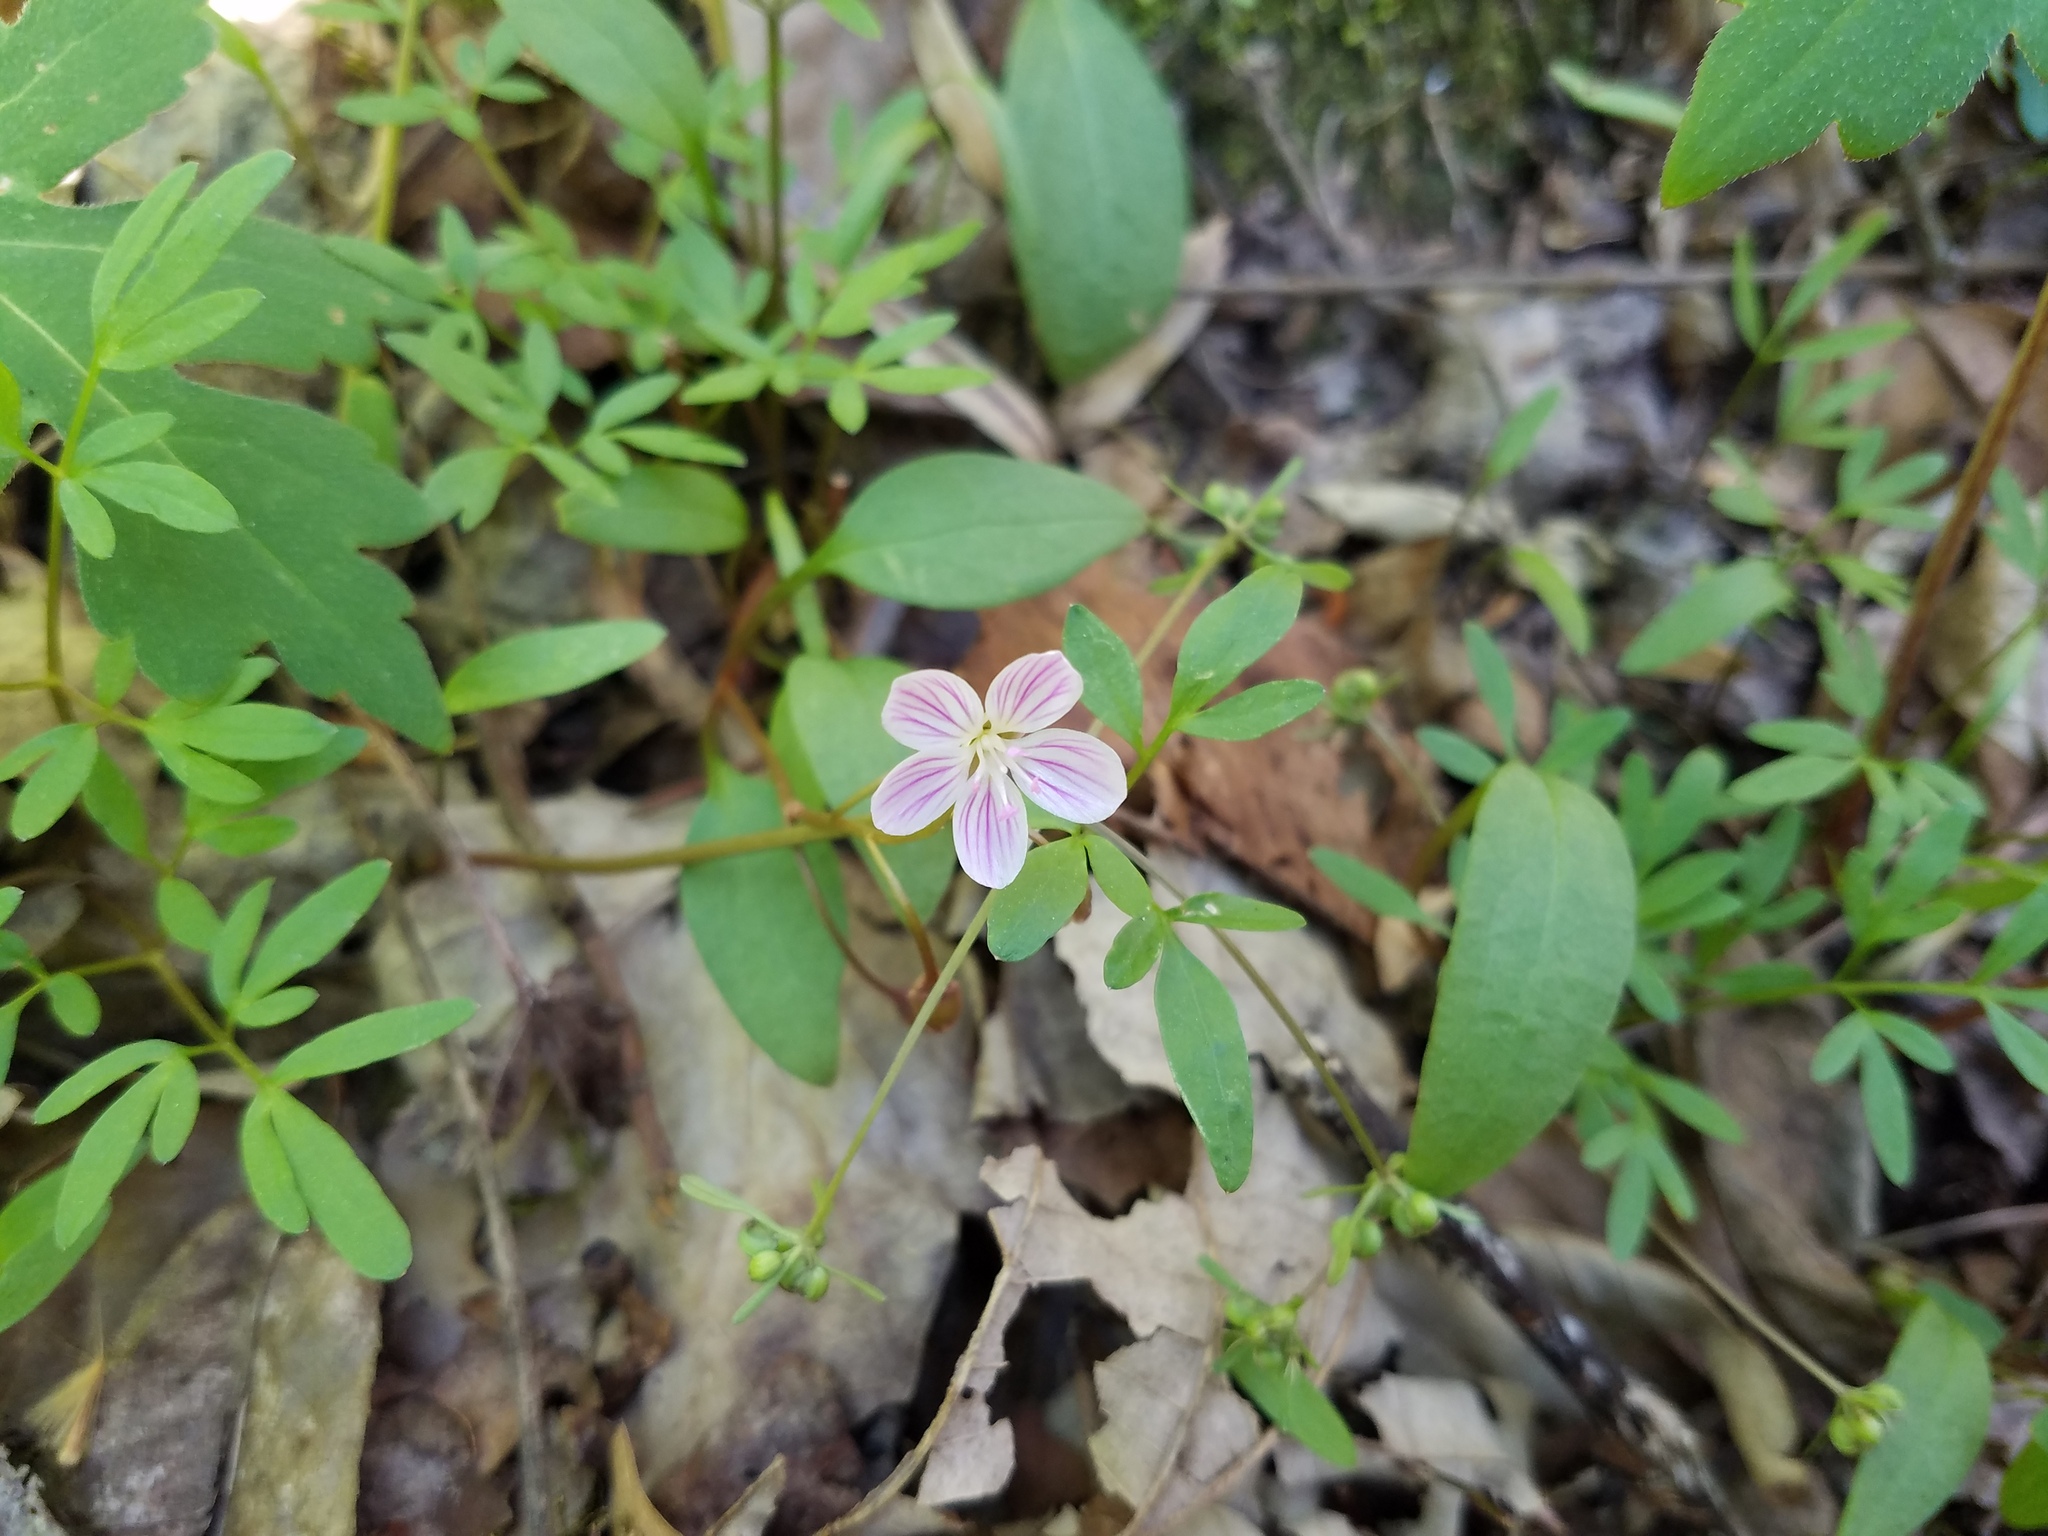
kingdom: Plantae
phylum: Tracheophyta
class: Magnoliopsida
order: Caryophyllales
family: Montiaceae
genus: Claytonia
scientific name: Claytonia caroliniana
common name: Carolina spring beauty
